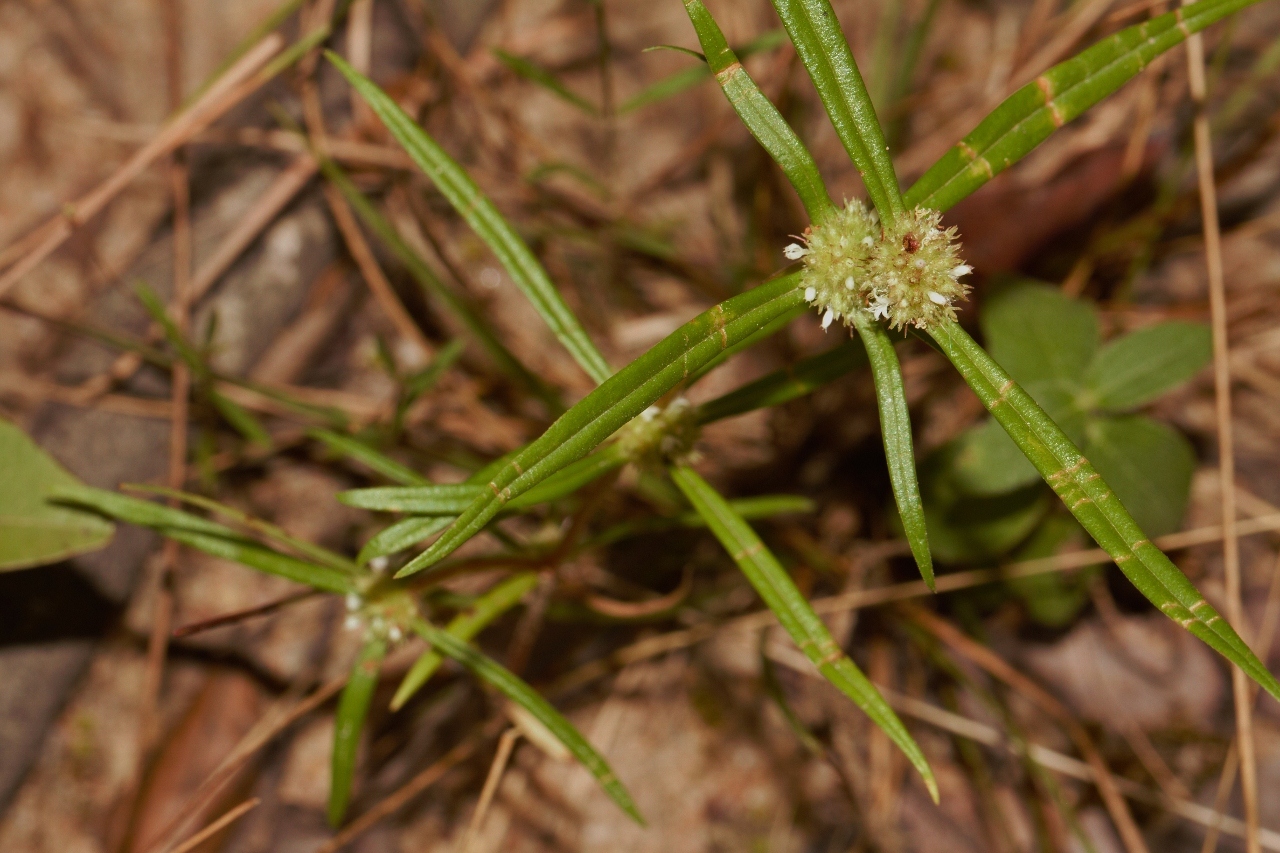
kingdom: Plantae
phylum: Tracheophyta
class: Magnoliopsida
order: Gentianales
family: Rubiaceae
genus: Spermacoce
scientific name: Spermacoce pusilla
